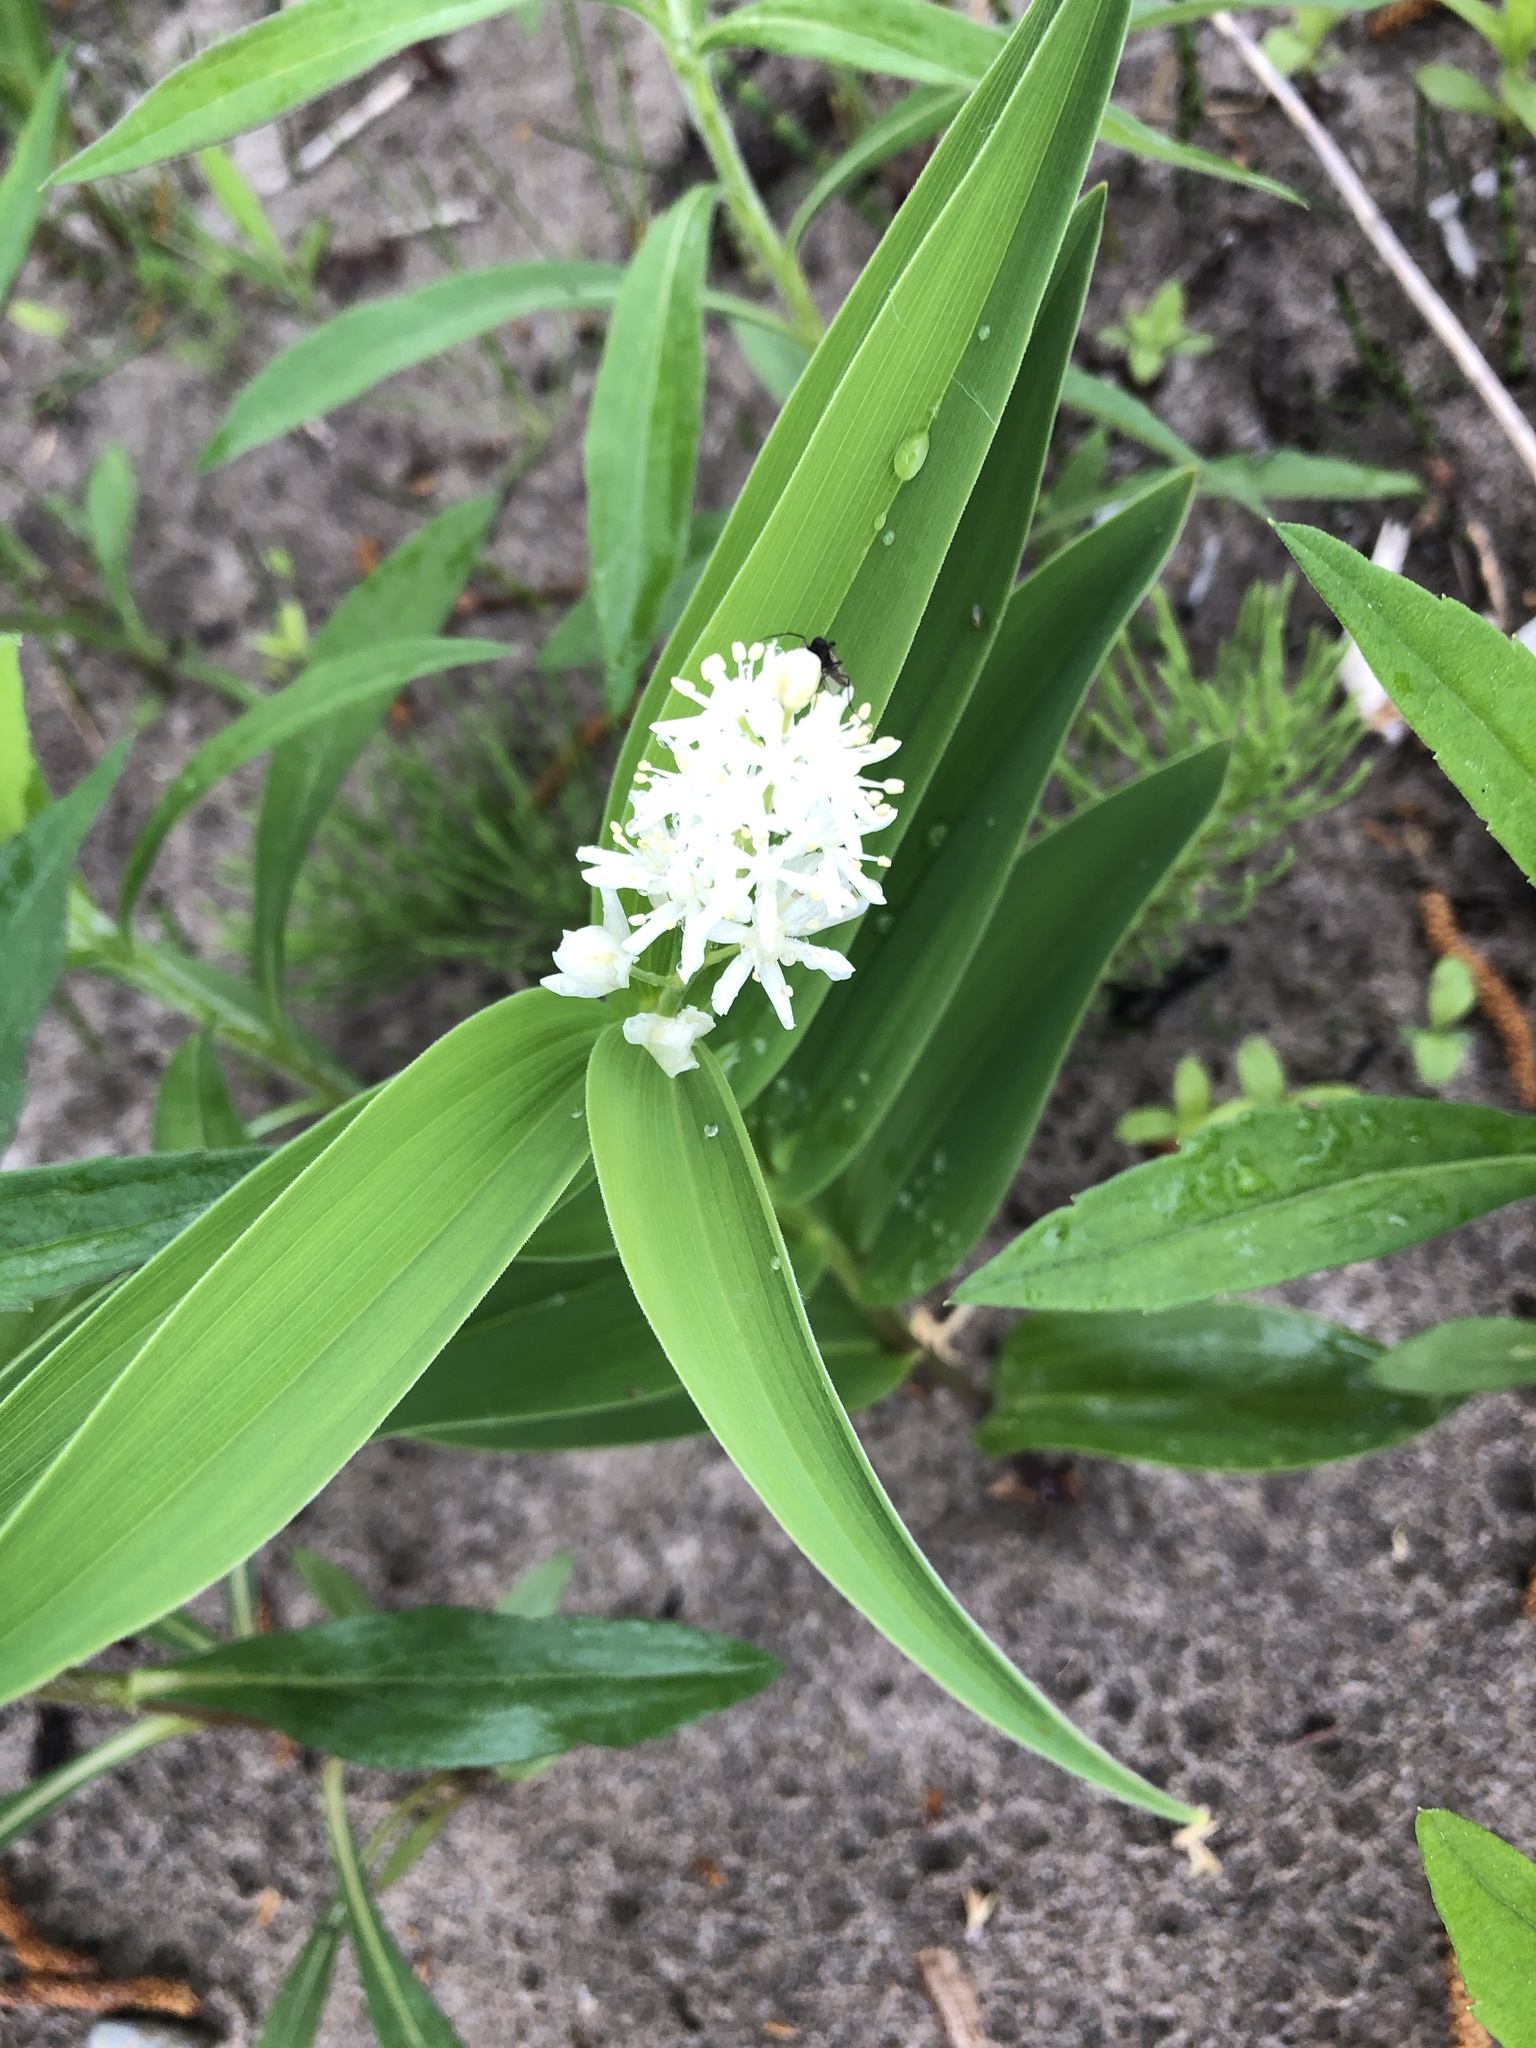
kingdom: Plantae
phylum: Tracheophyta
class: Liliopsida
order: Asparagales
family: Asparagaceae
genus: Maianthemum
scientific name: Maianthemum stellatum
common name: Little false solomon's seal
